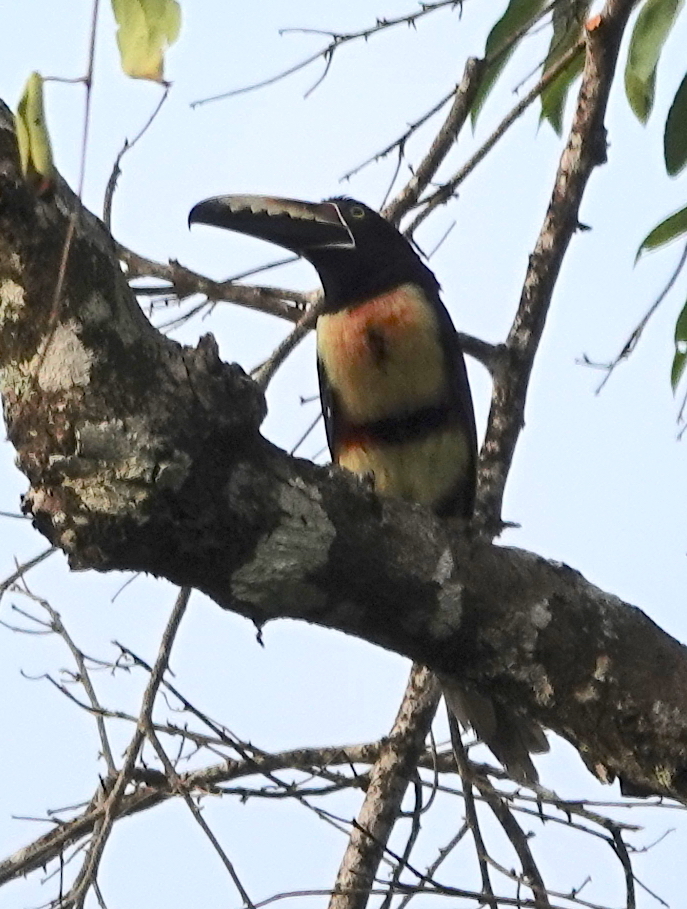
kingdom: Animalia
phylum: Chordata
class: Aves
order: Piciformes
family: Ramphastidae
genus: Pteroglossus
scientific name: Pteroglossus torquatus
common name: Collared aracari
